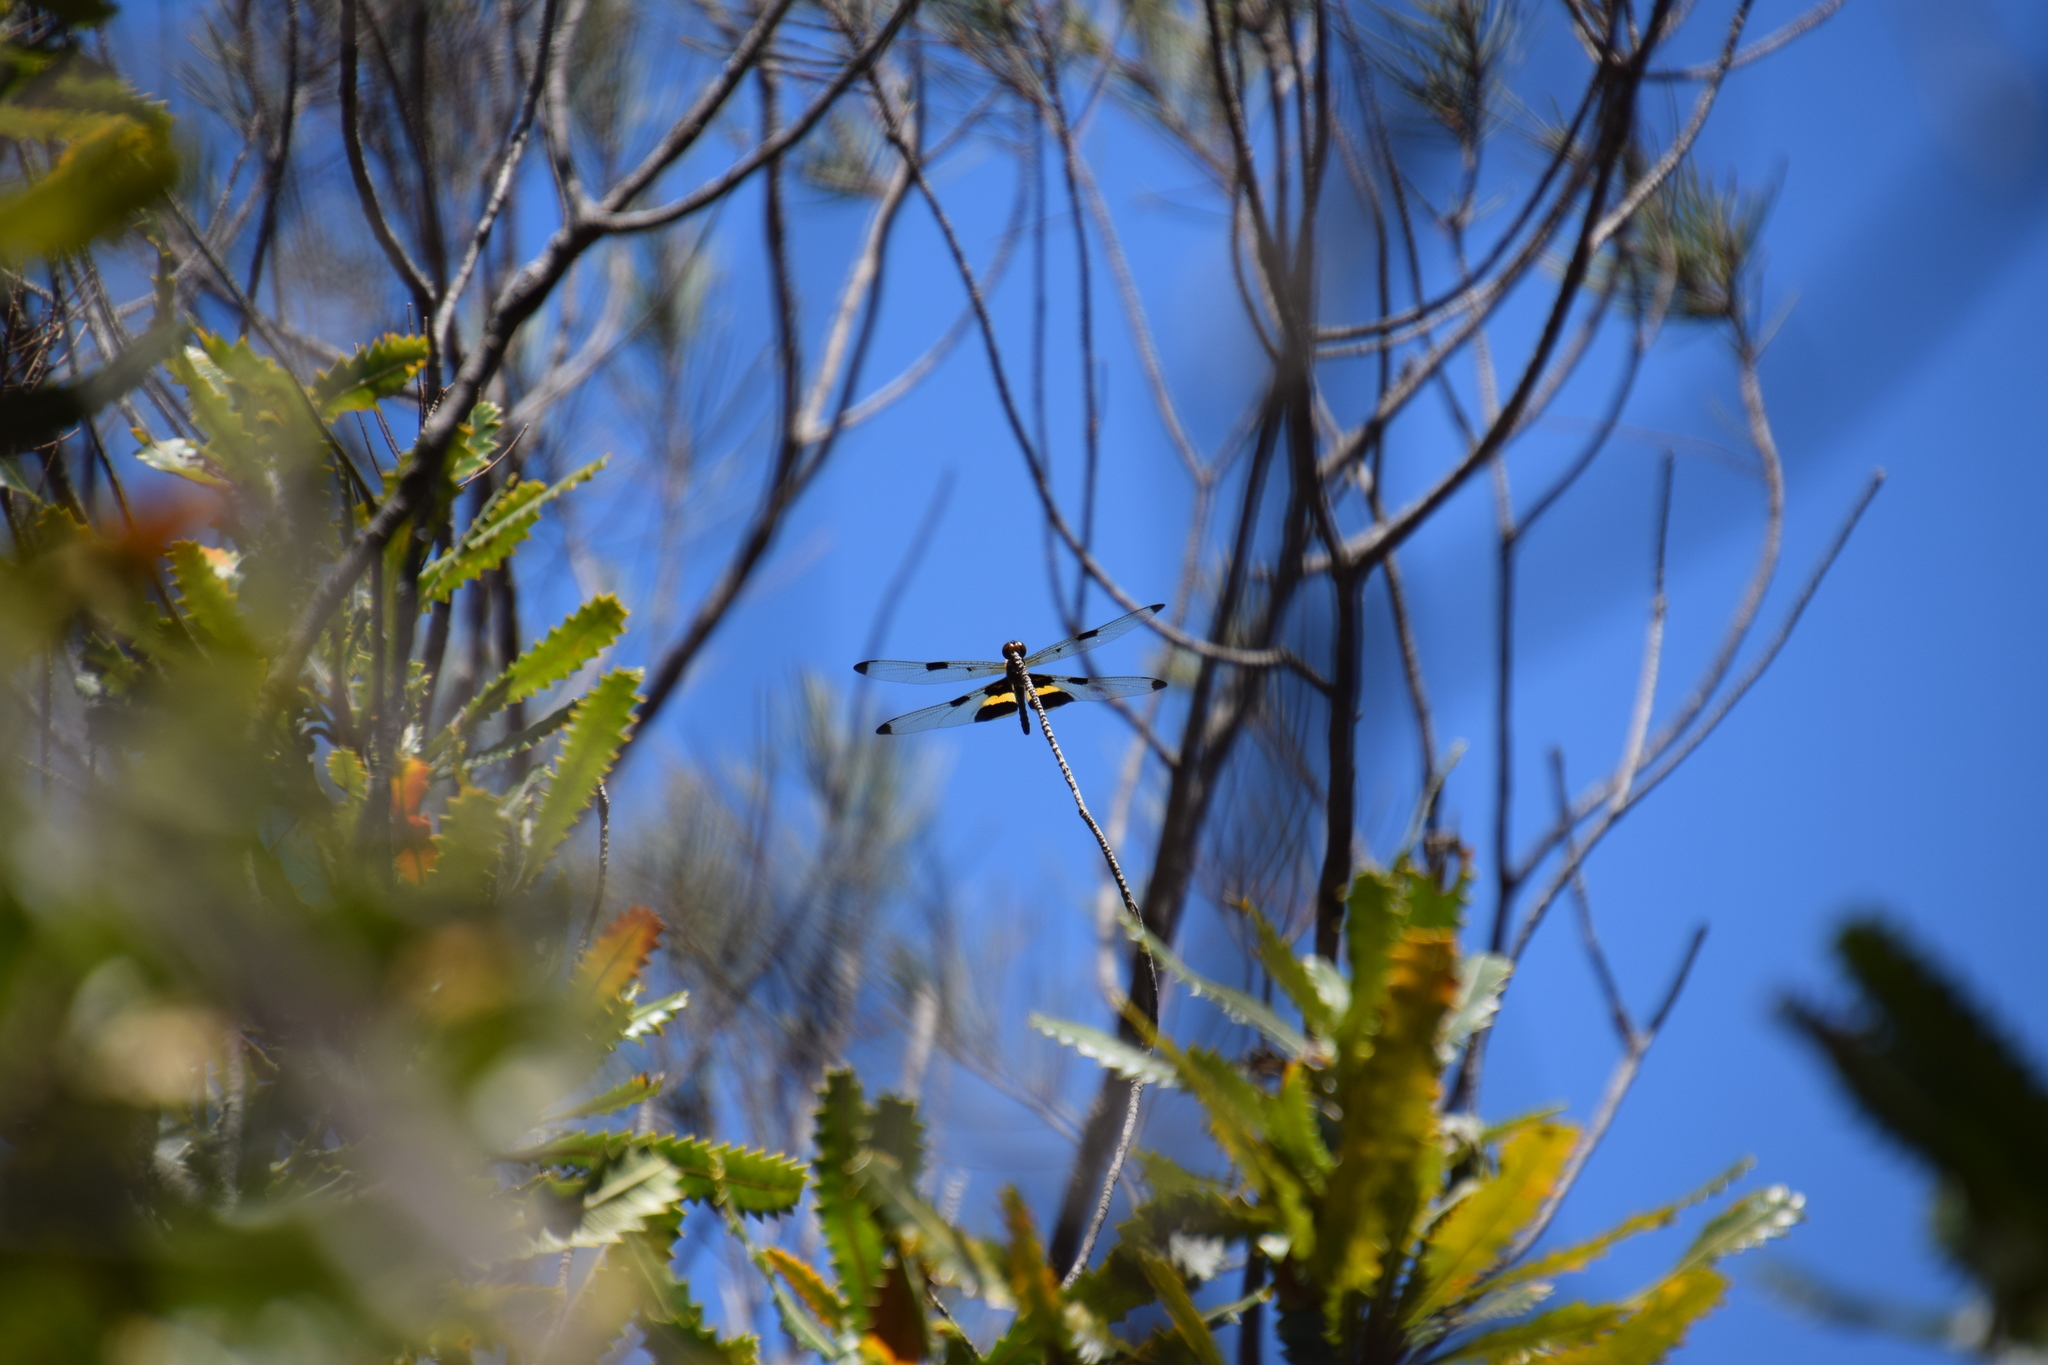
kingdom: Animalia
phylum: Arthropoda
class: Insecta
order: Odonata
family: Libellulidae
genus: Rhyothemis
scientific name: Rhyothemis phyllis
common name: Yellow-barred flutterer
